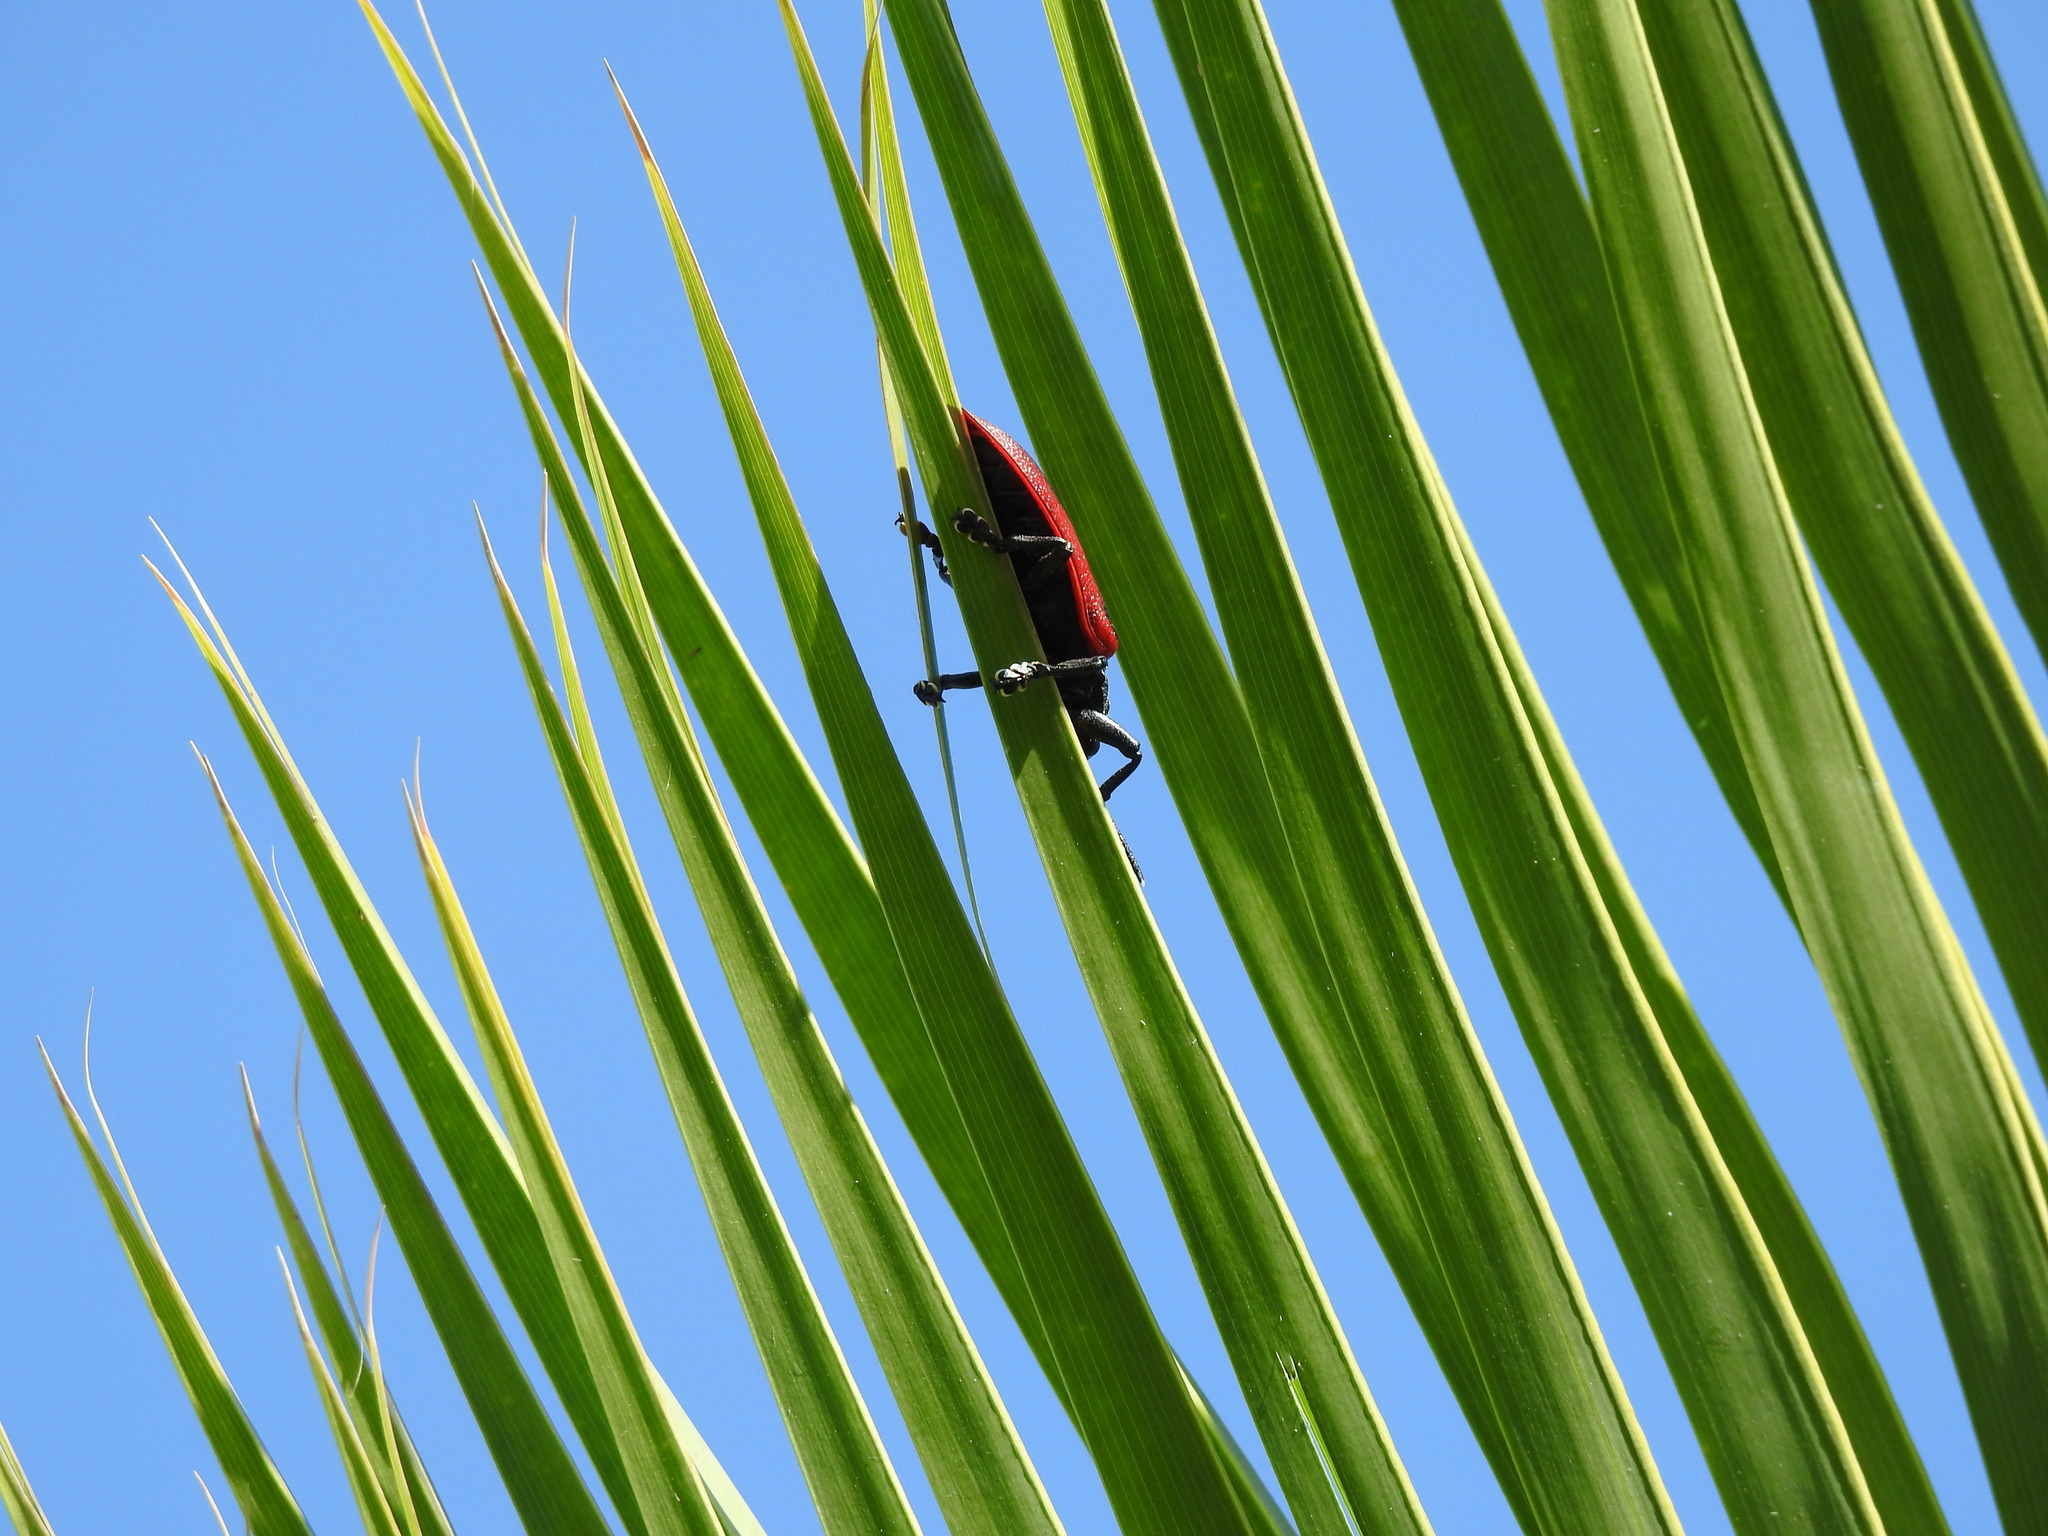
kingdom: Animalia
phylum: Arthropoda
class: Insecta
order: Coleoptera
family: Chrysomelidae
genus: Coraliomela
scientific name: Coraliomela quadrimaculata
